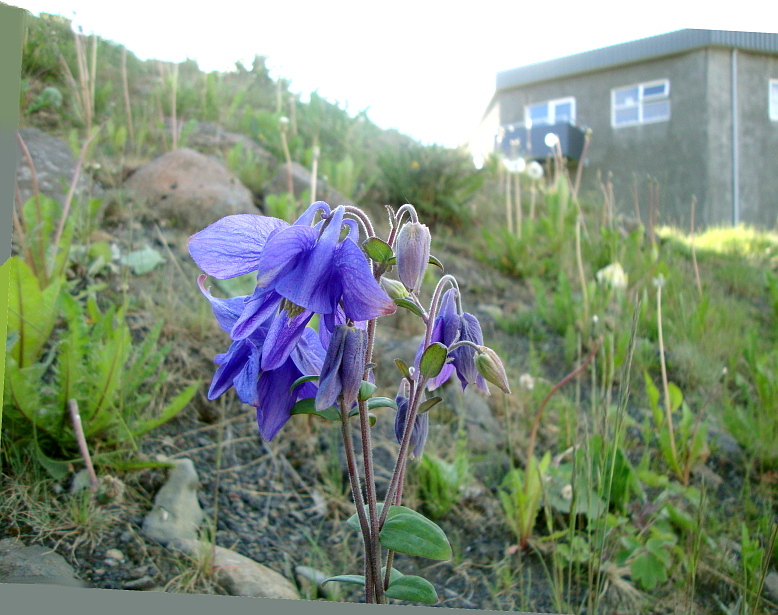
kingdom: Plantae
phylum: Tracheophyta
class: Magnoliopsida
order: Ranunculales
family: Ranunculaceae
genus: Aquilegia
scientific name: Aquilegia vulgaris
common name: Columbine
